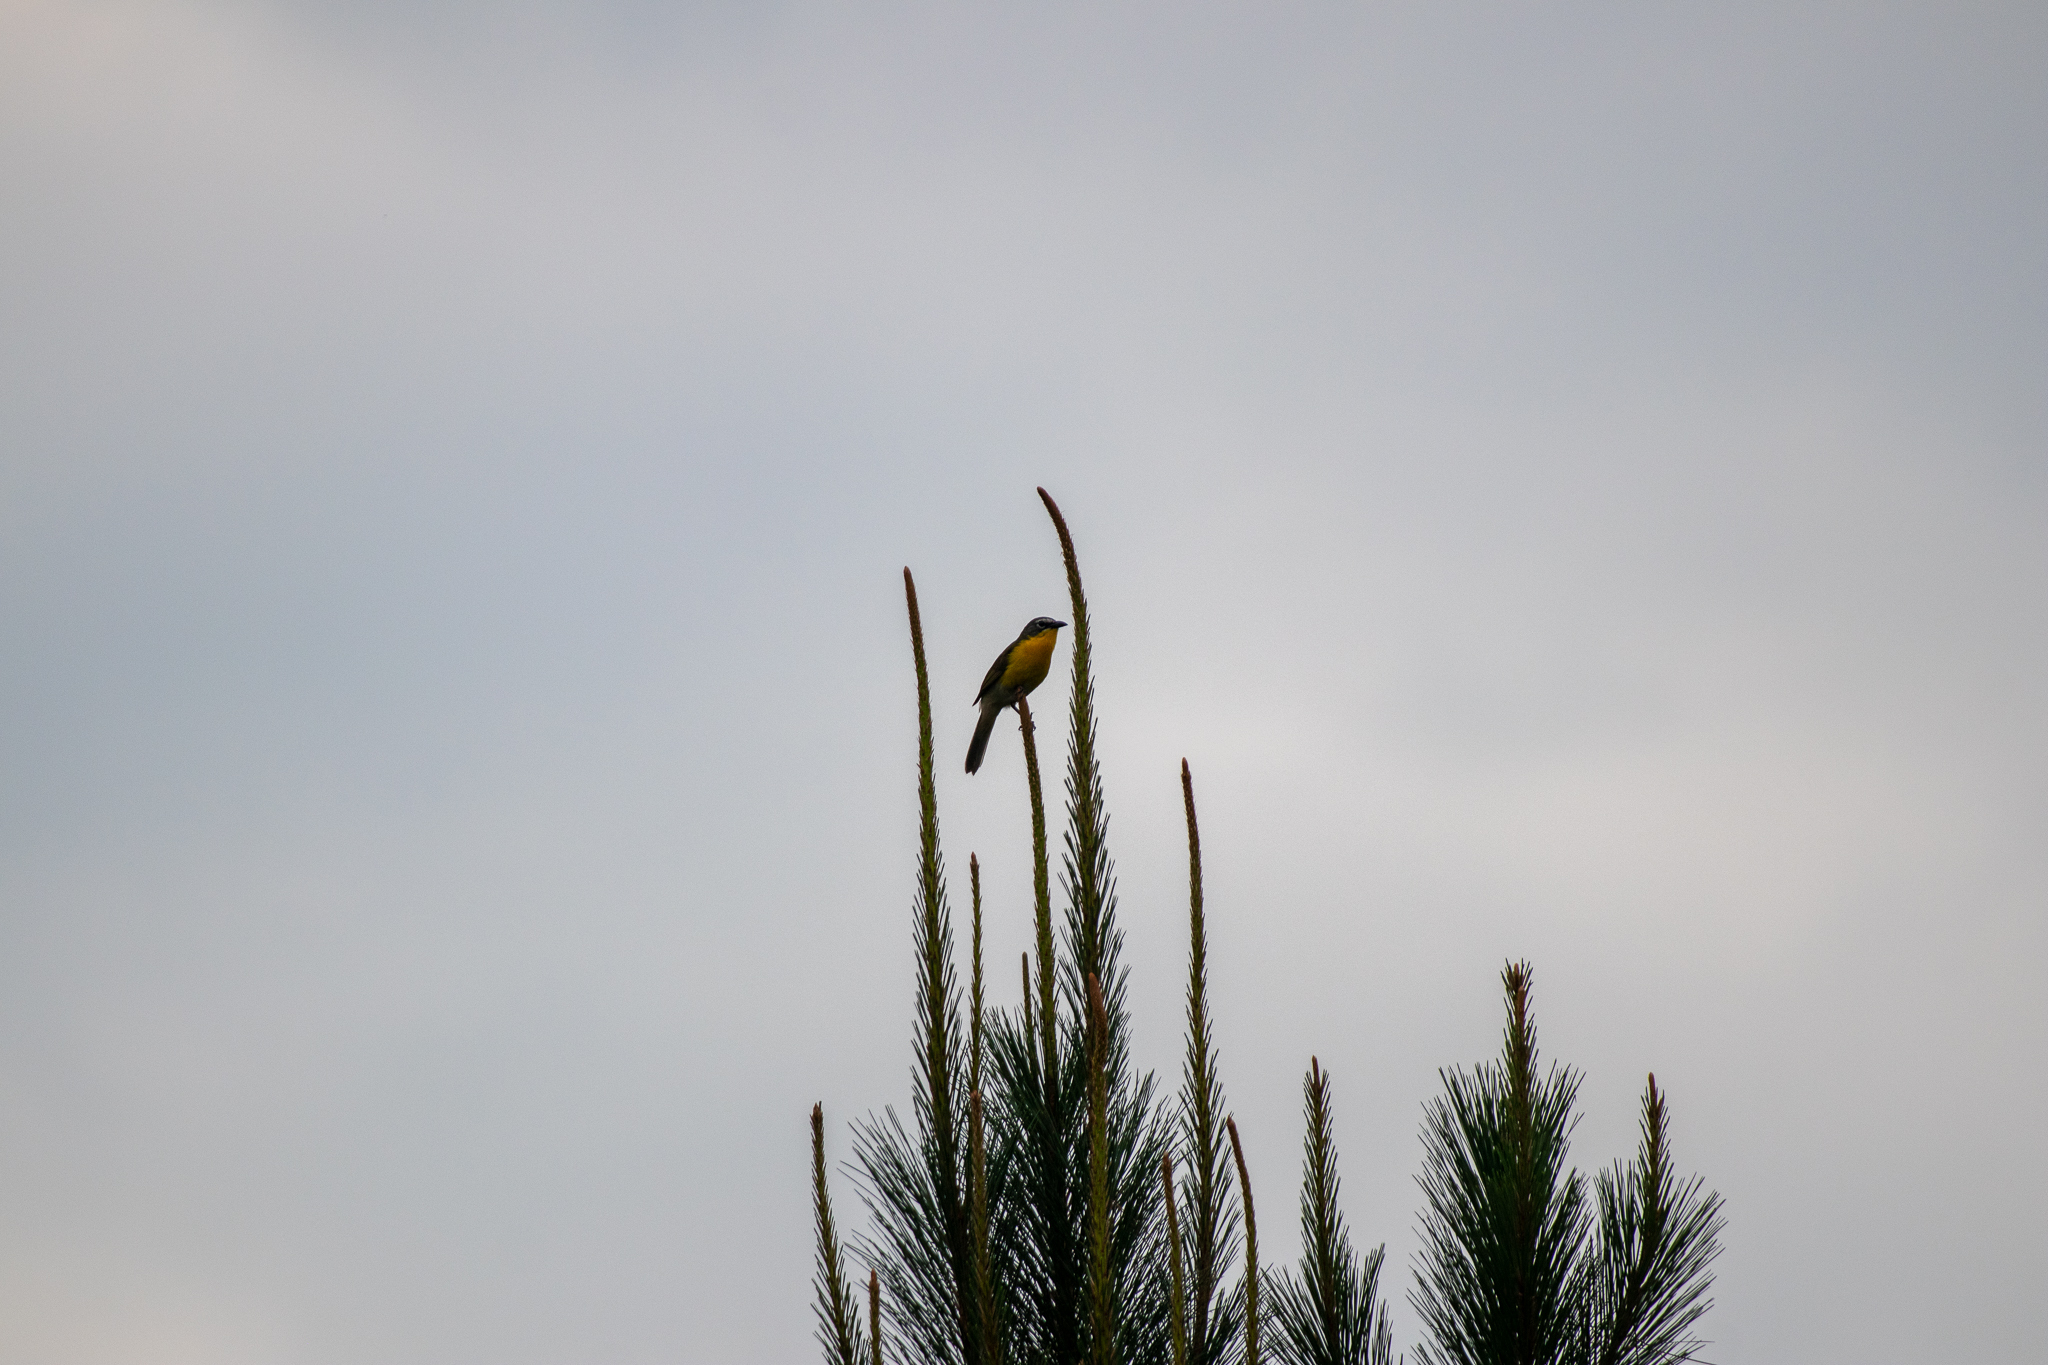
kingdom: Animalia
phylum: Chordata
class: Aves
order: Passeriformes
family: Parulidae
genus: Icteria
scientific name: Icteria virens
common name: Yellow-breasted chat
